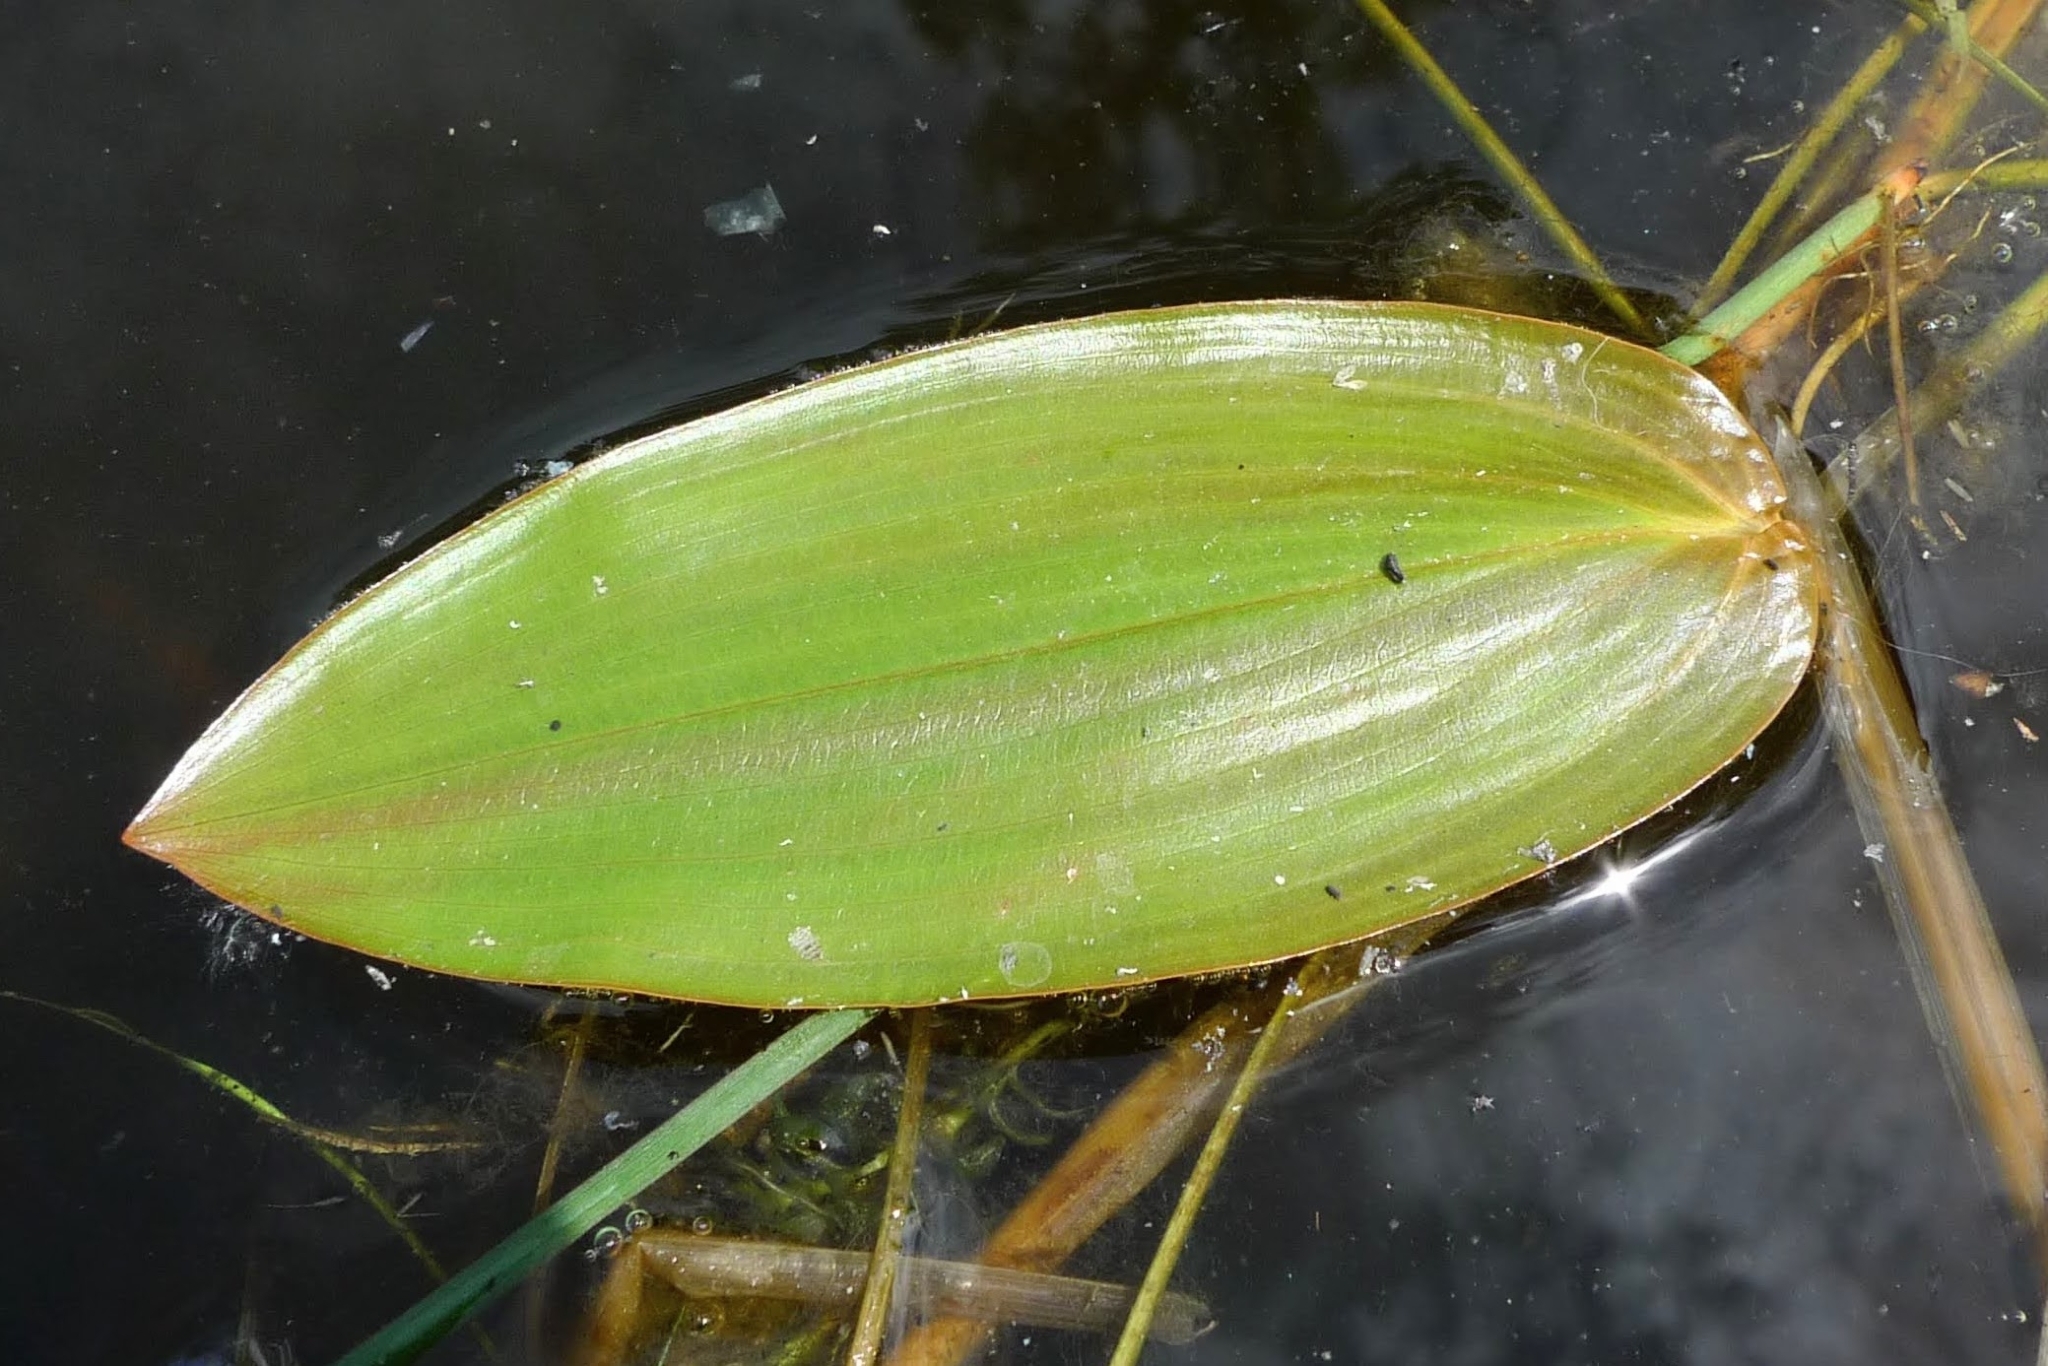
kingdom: Plantae
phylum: Tracheophyta
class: Liliopsida
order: Alismatales
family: Potamogetonaceae
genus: Potamogeton
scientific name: Potamogeton natans
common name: Broad-leaved pondweed
